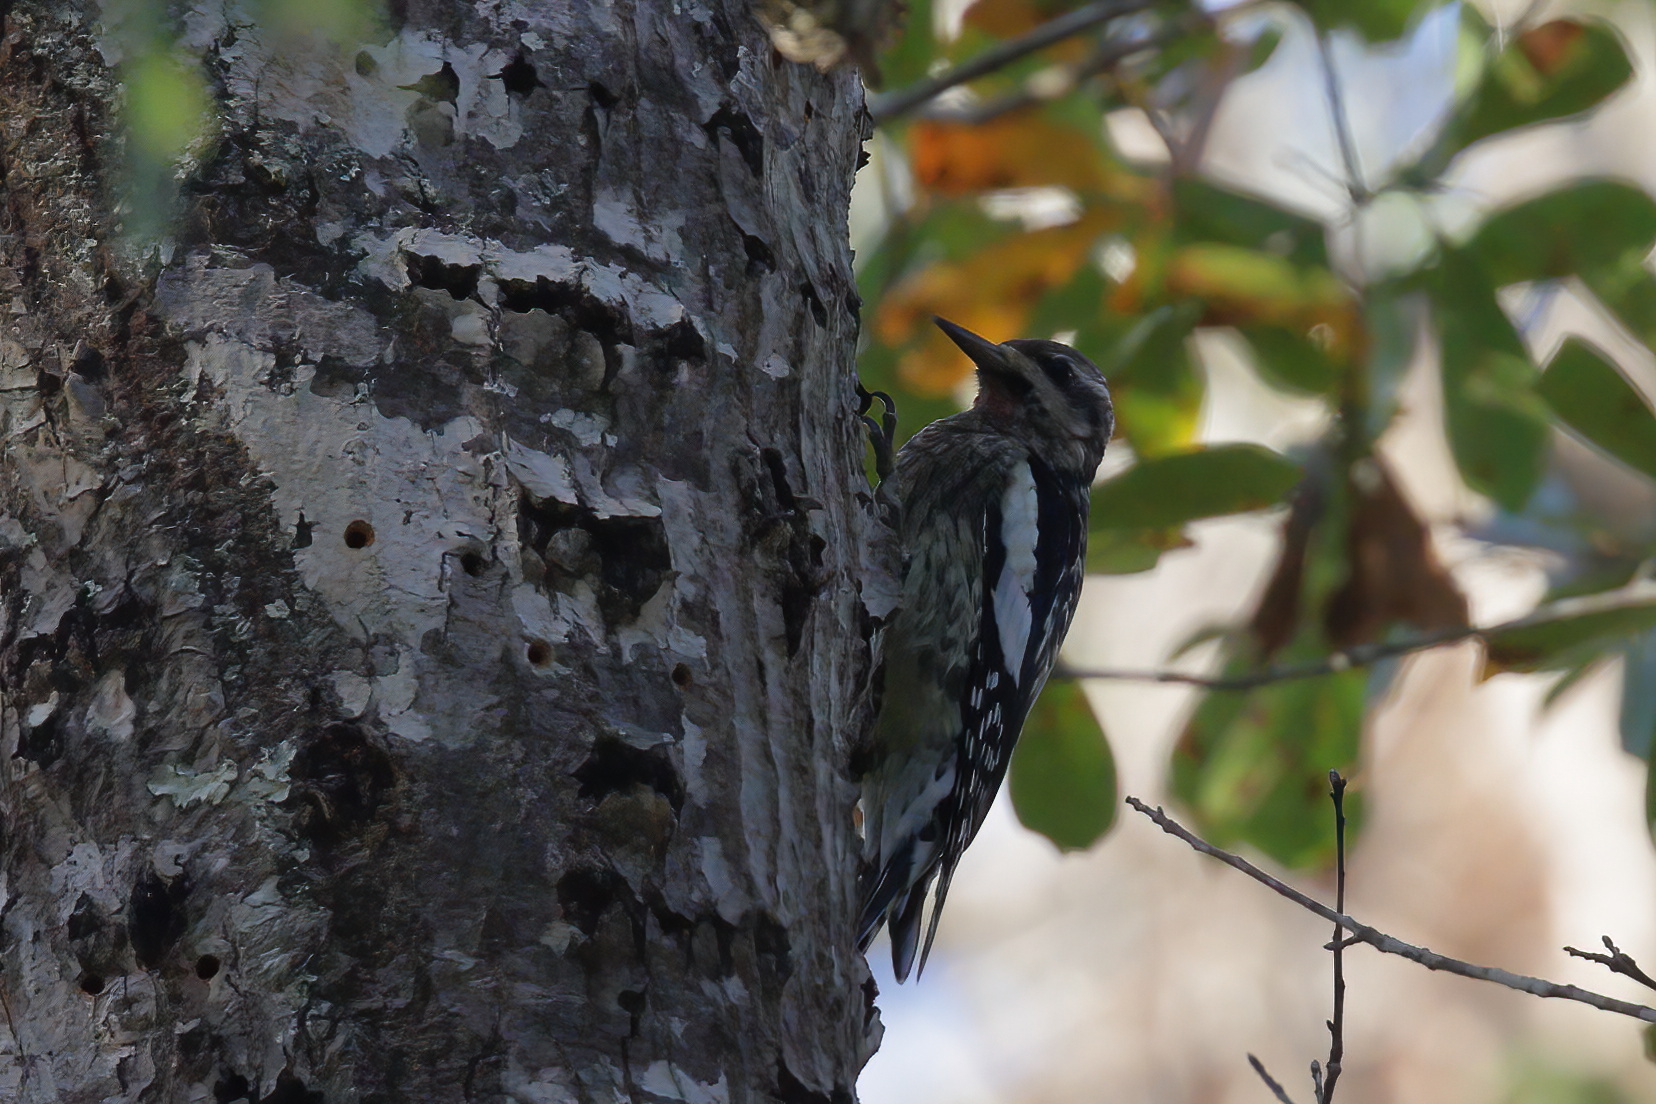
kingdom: Animalia
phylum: Chordata
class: Aves
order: Piciformes
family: Picidae
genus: Sphyrapicus
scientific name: Sphyrapicus varius
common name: Yellow-bellied sapsucker
